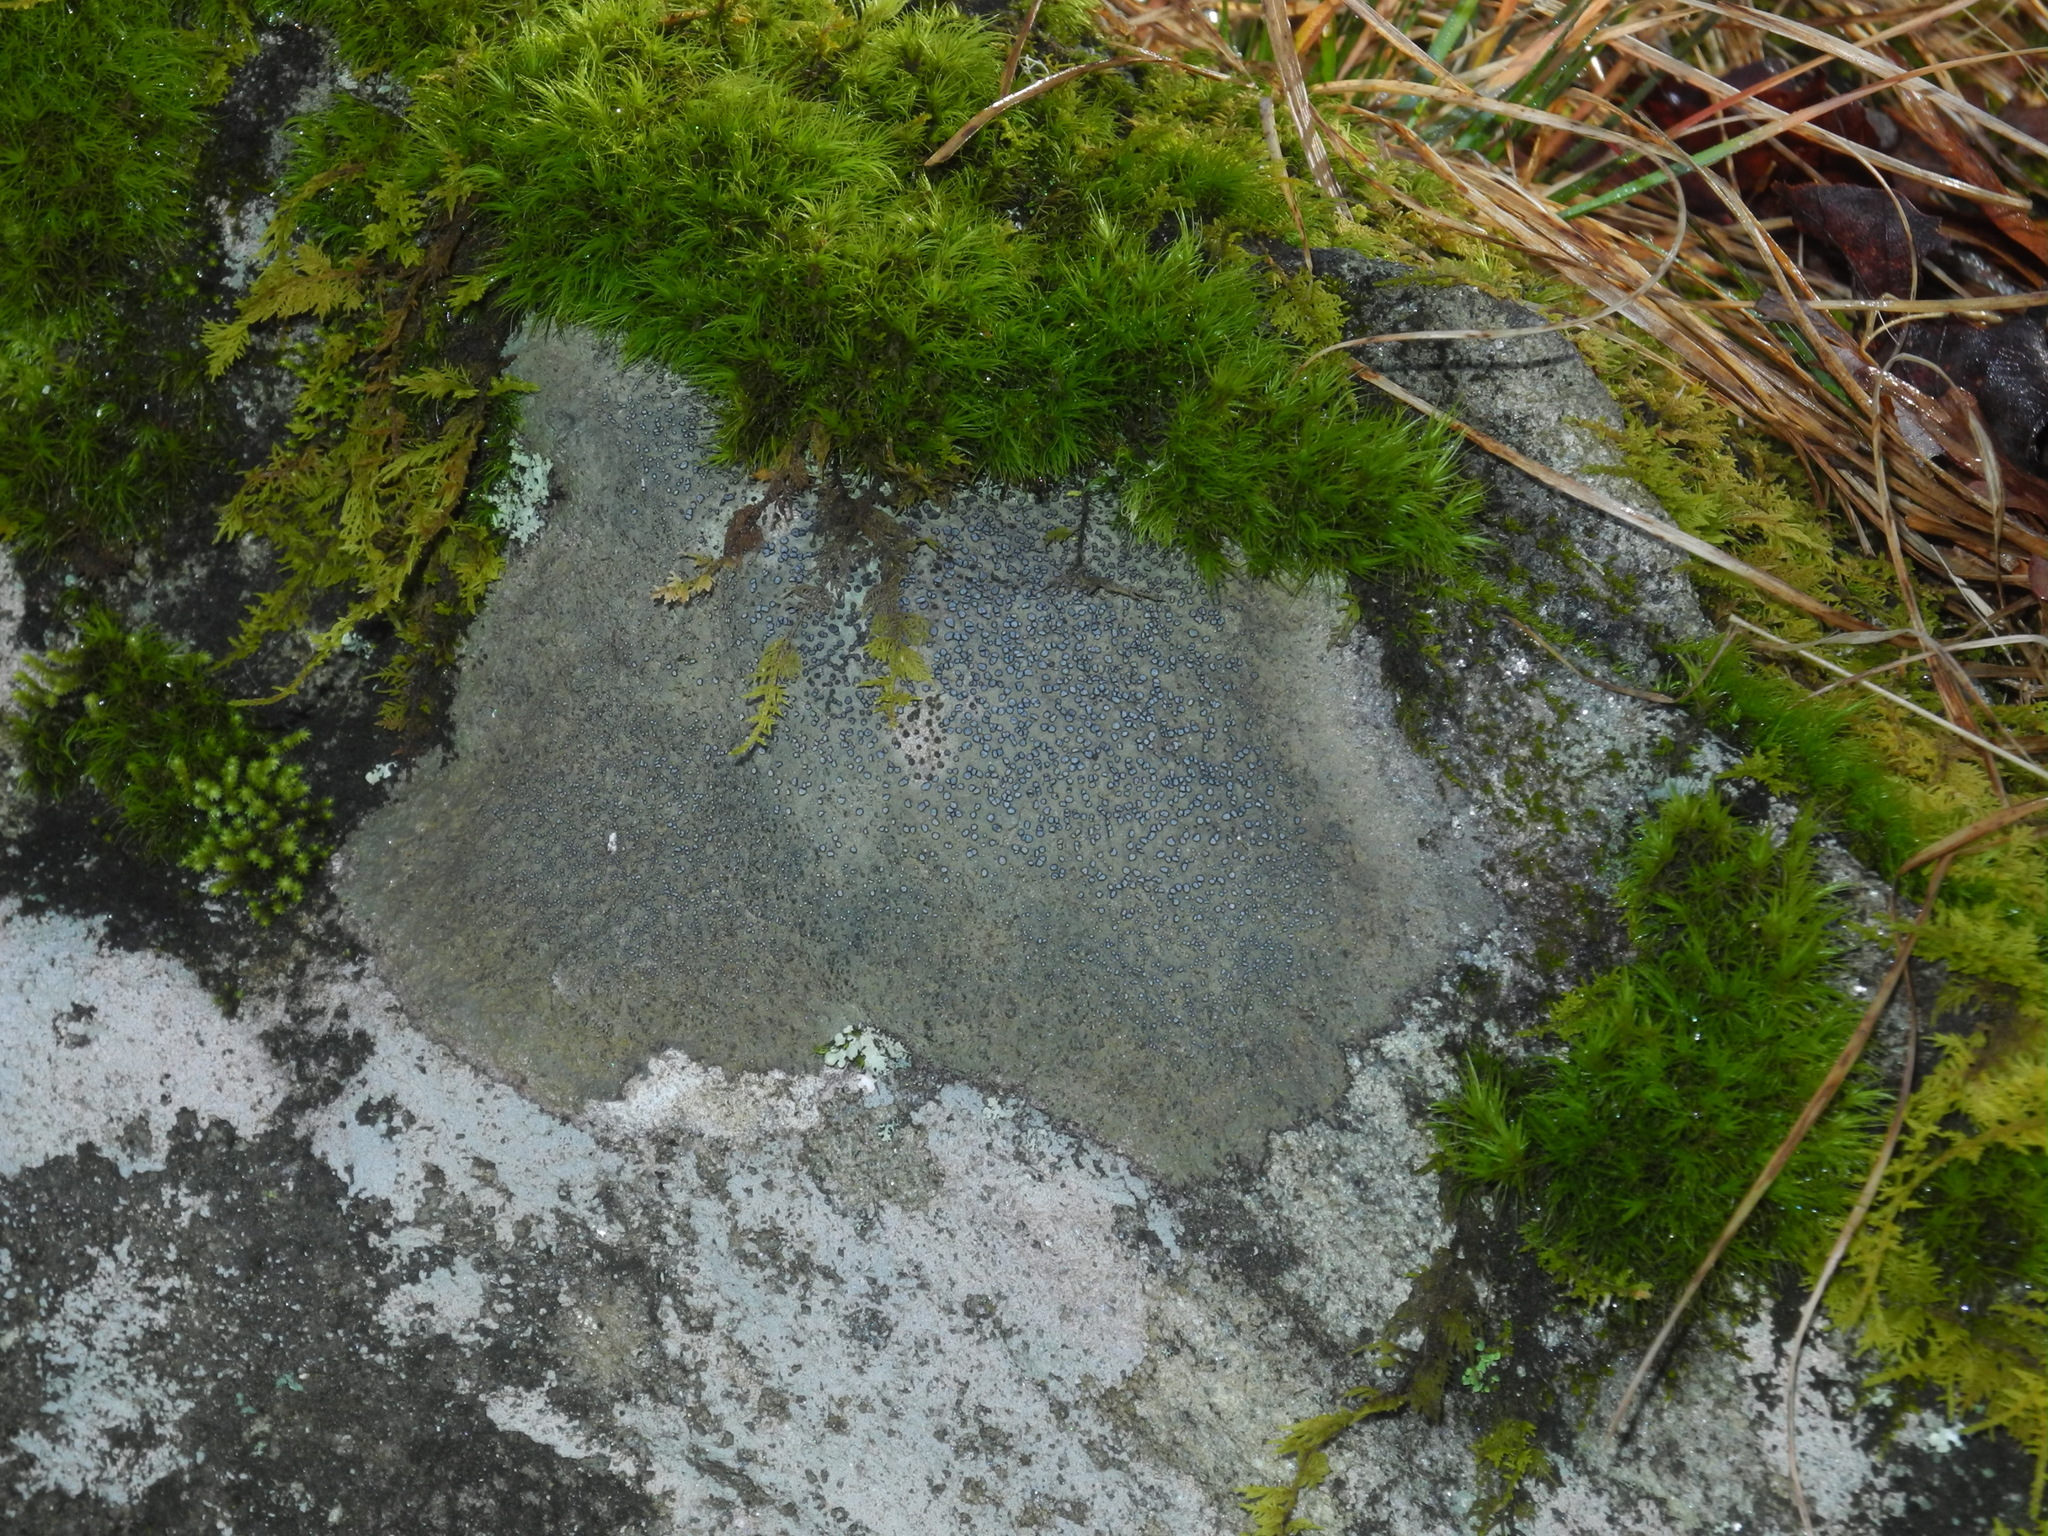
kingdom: Fungi
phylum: Ascomycota
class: Lecanoromycetes
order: Lecideales
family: Lecideaceae
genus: Porpidia
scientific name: Porpidia albocaerulescens
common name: Smokey-eyed boulder lichen
